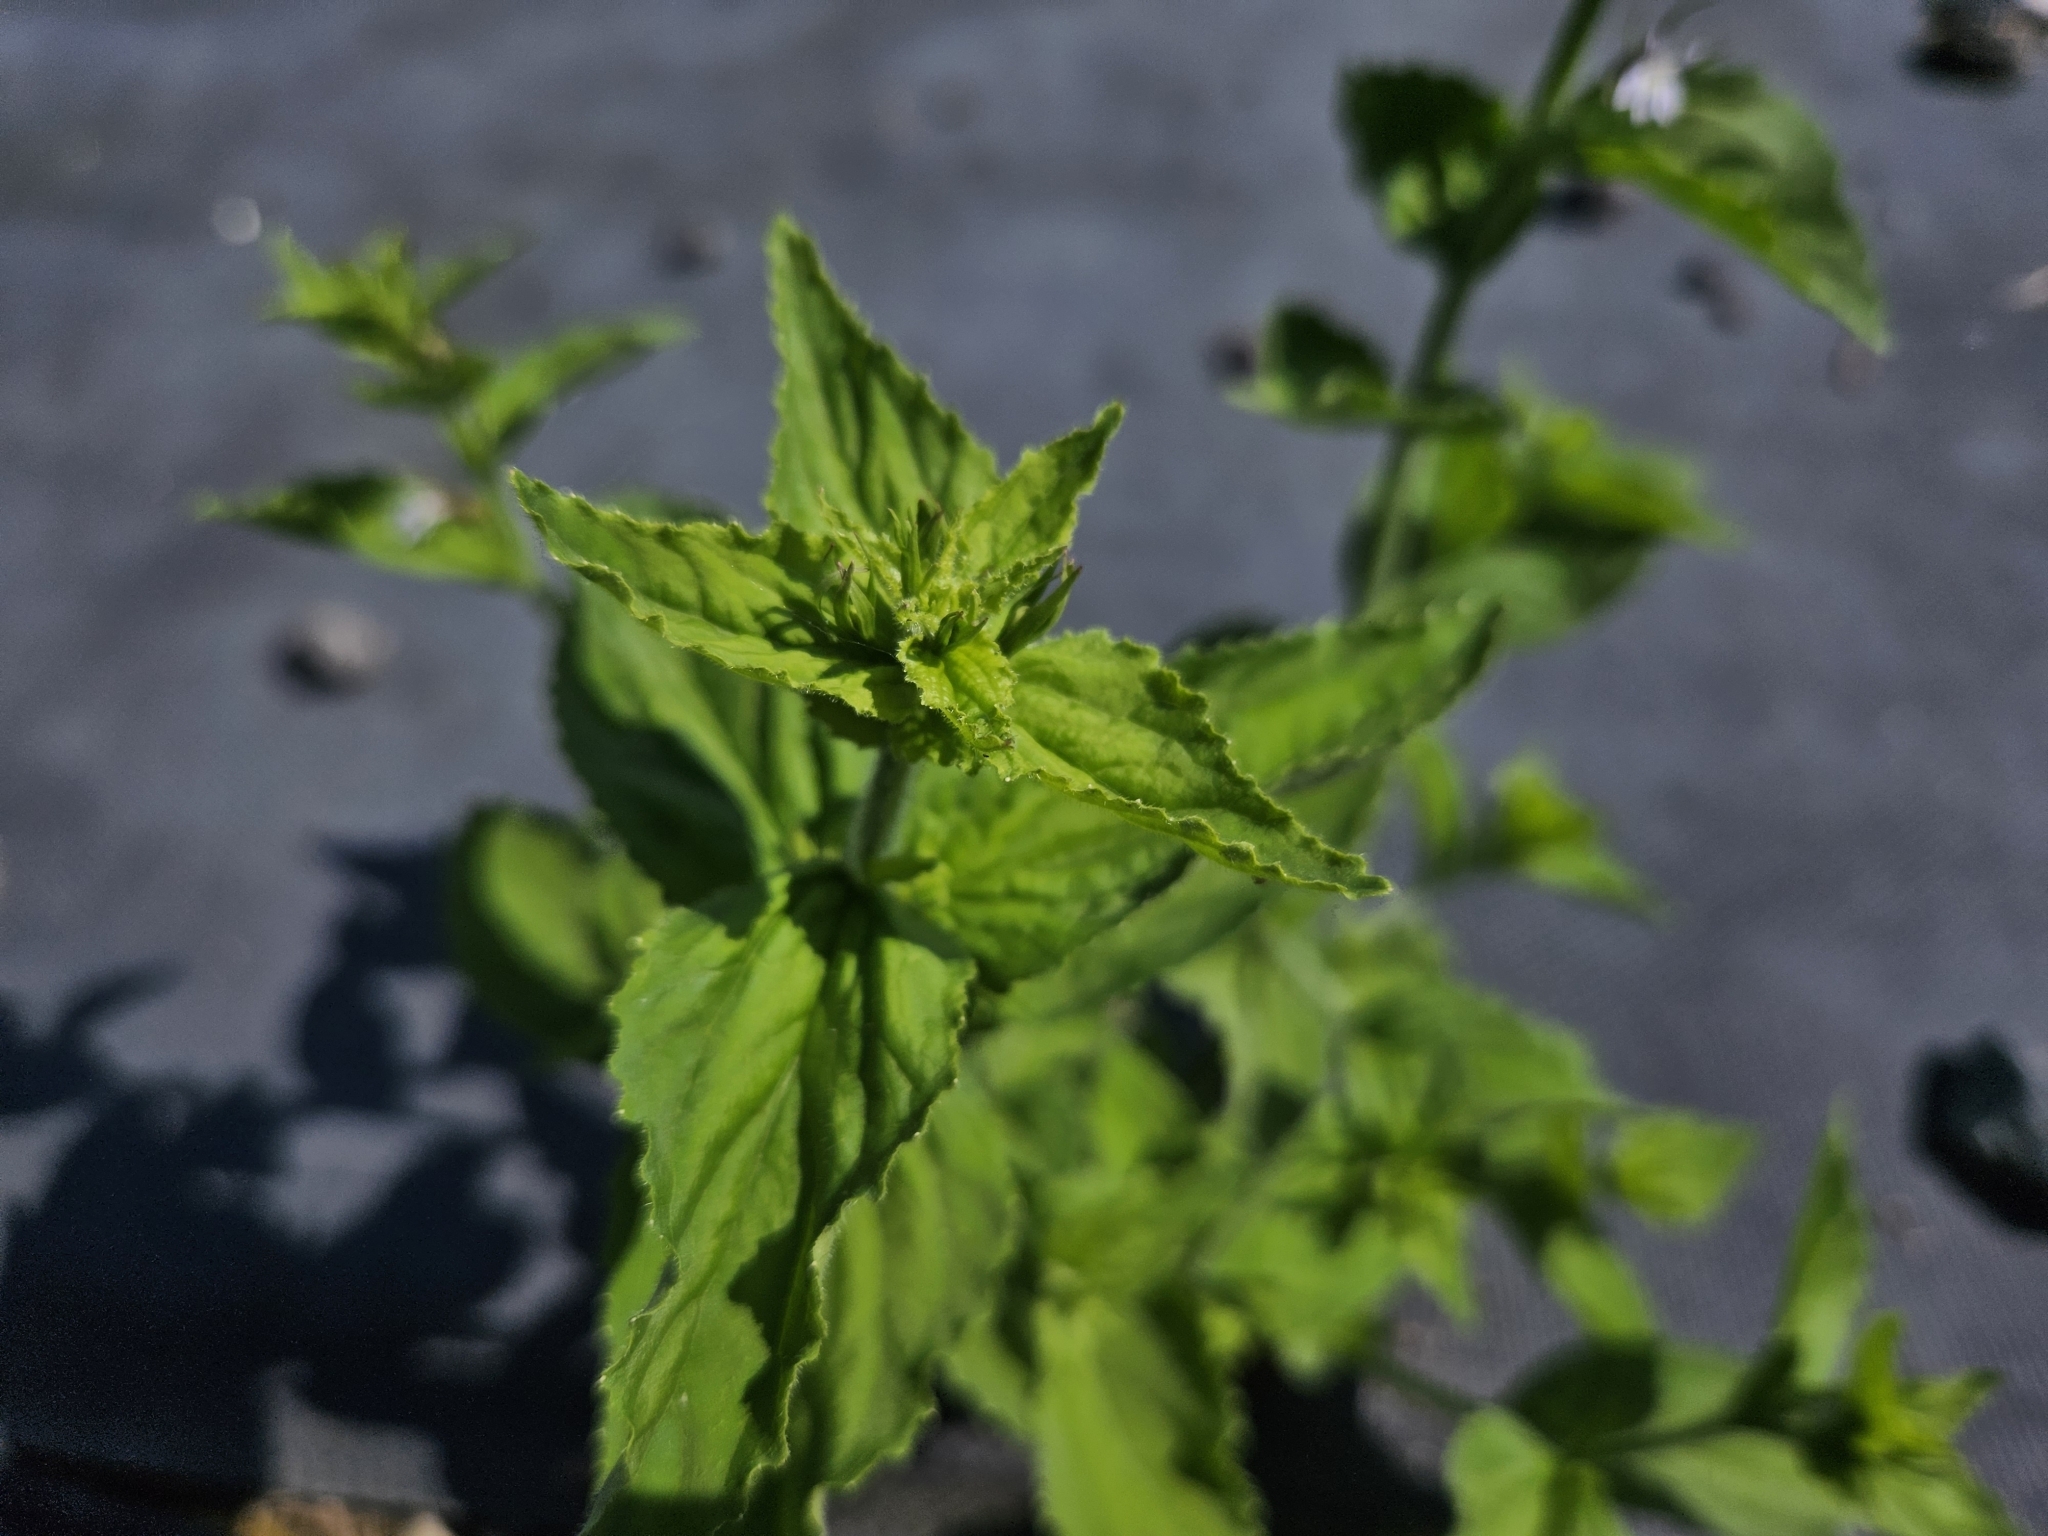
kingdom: Plantae
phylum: Tracheophyta
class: Magnoliopsida
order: Asterales
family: Campanulaceae
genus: Lobelia
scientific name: Lobelia inflata
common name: Indian tobacco
